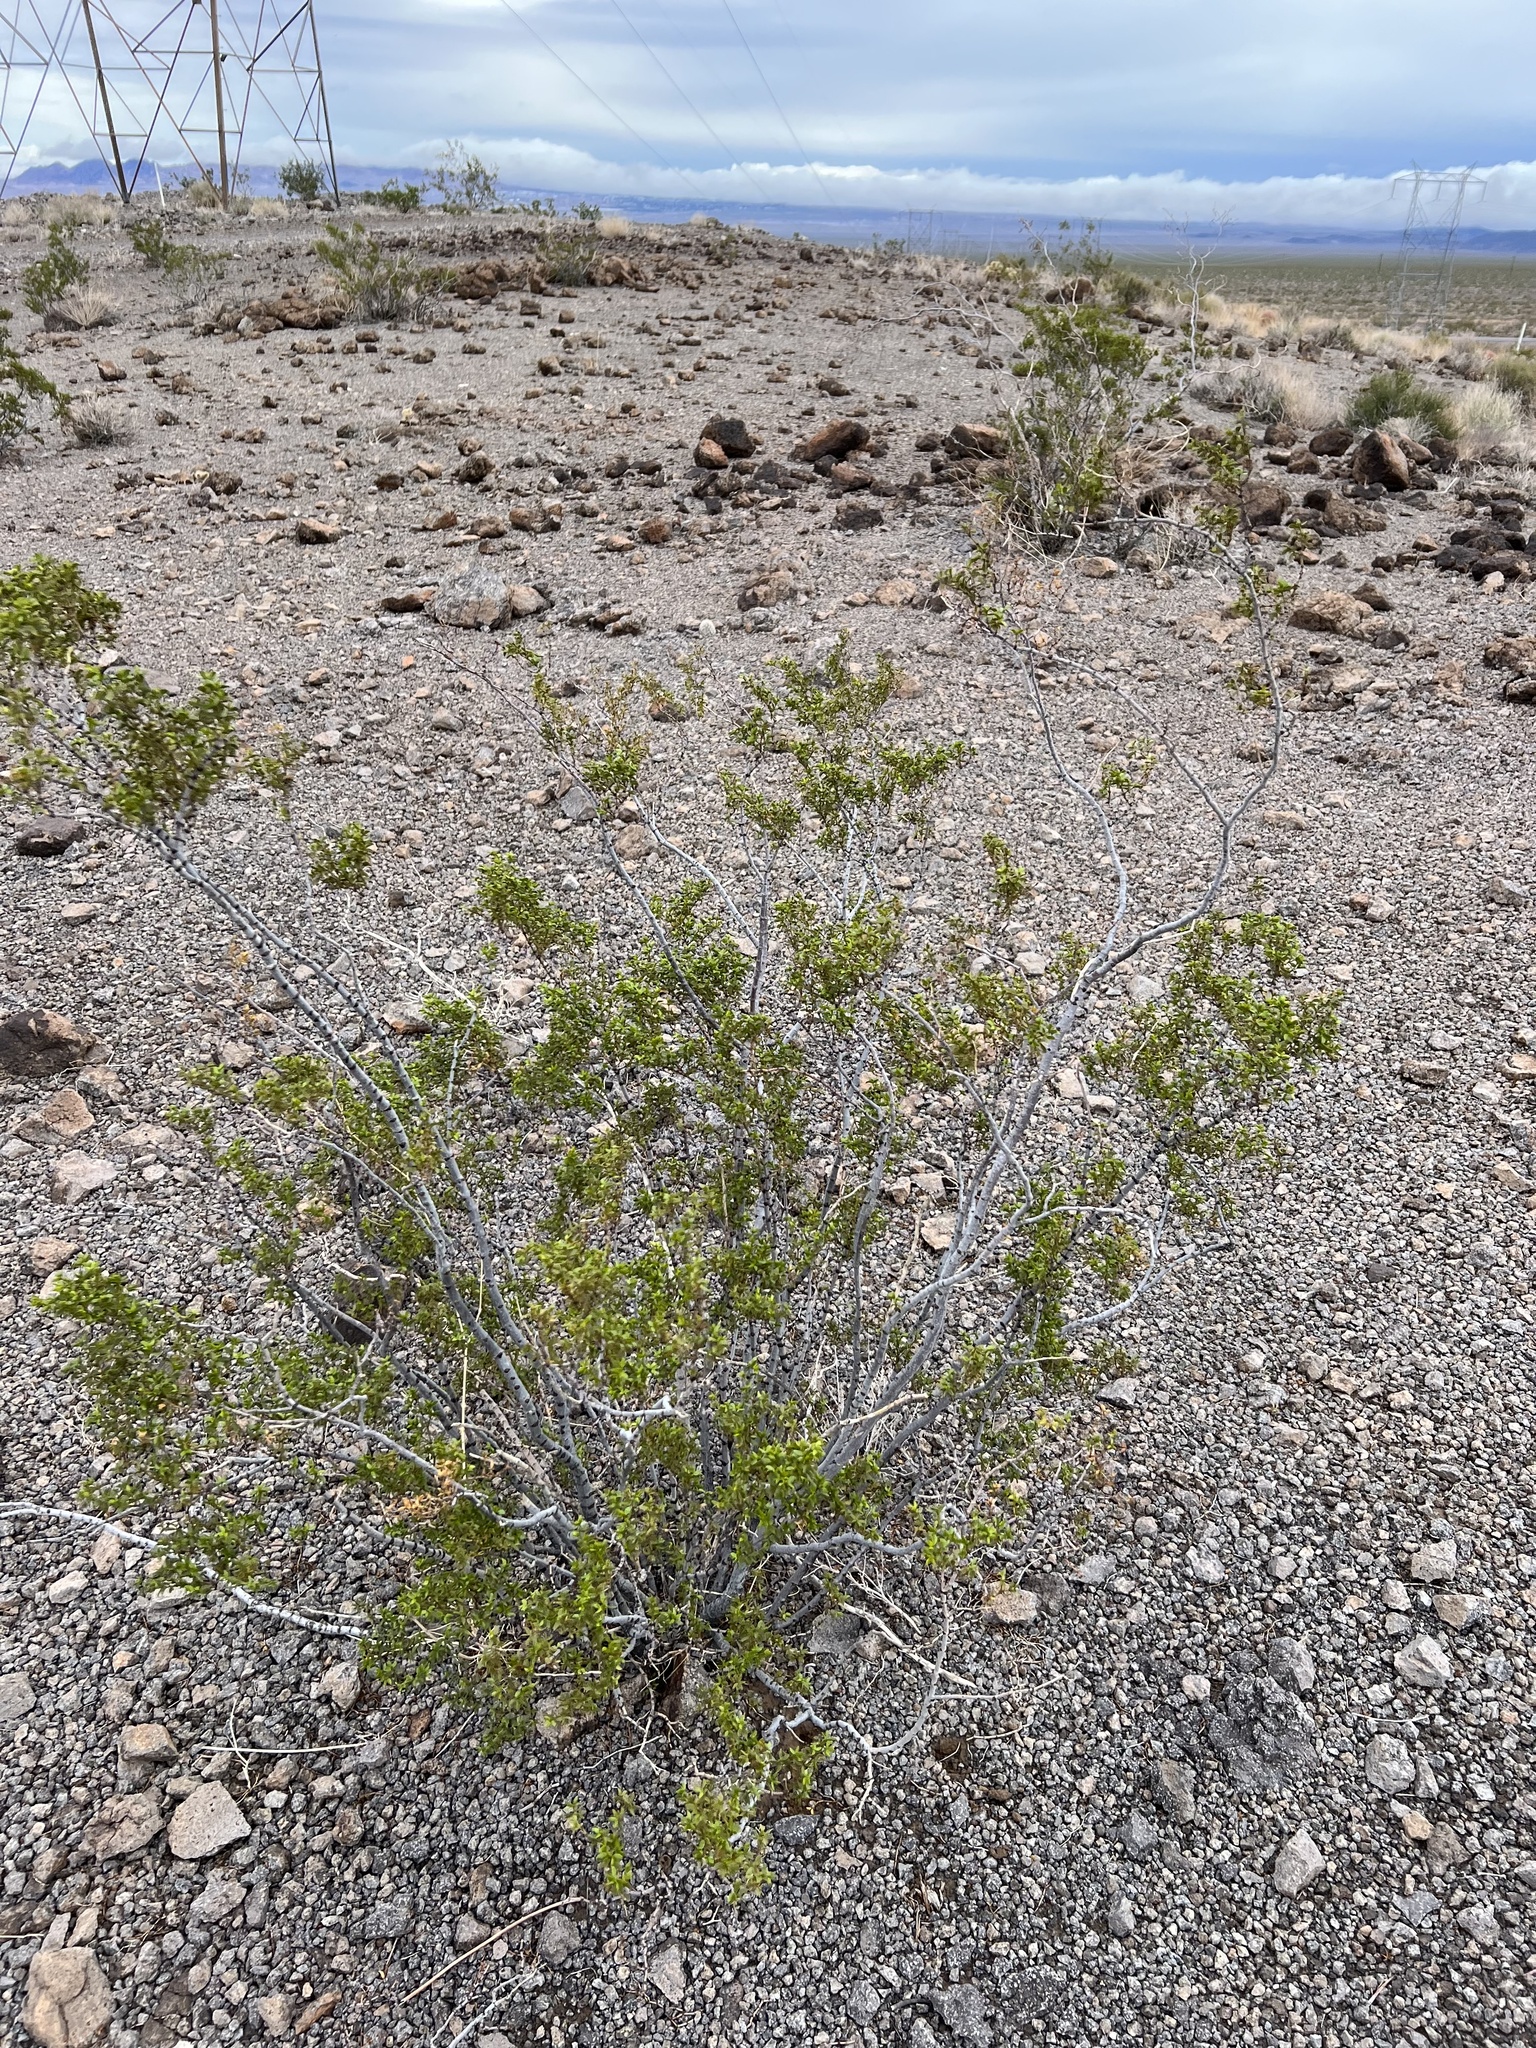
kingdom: Plantae
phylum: Tracheophyta
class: Magnoliopsida
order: Zygophyllales
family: Zygophyllaceae
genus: Larrea
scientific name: Larrea tridentata
